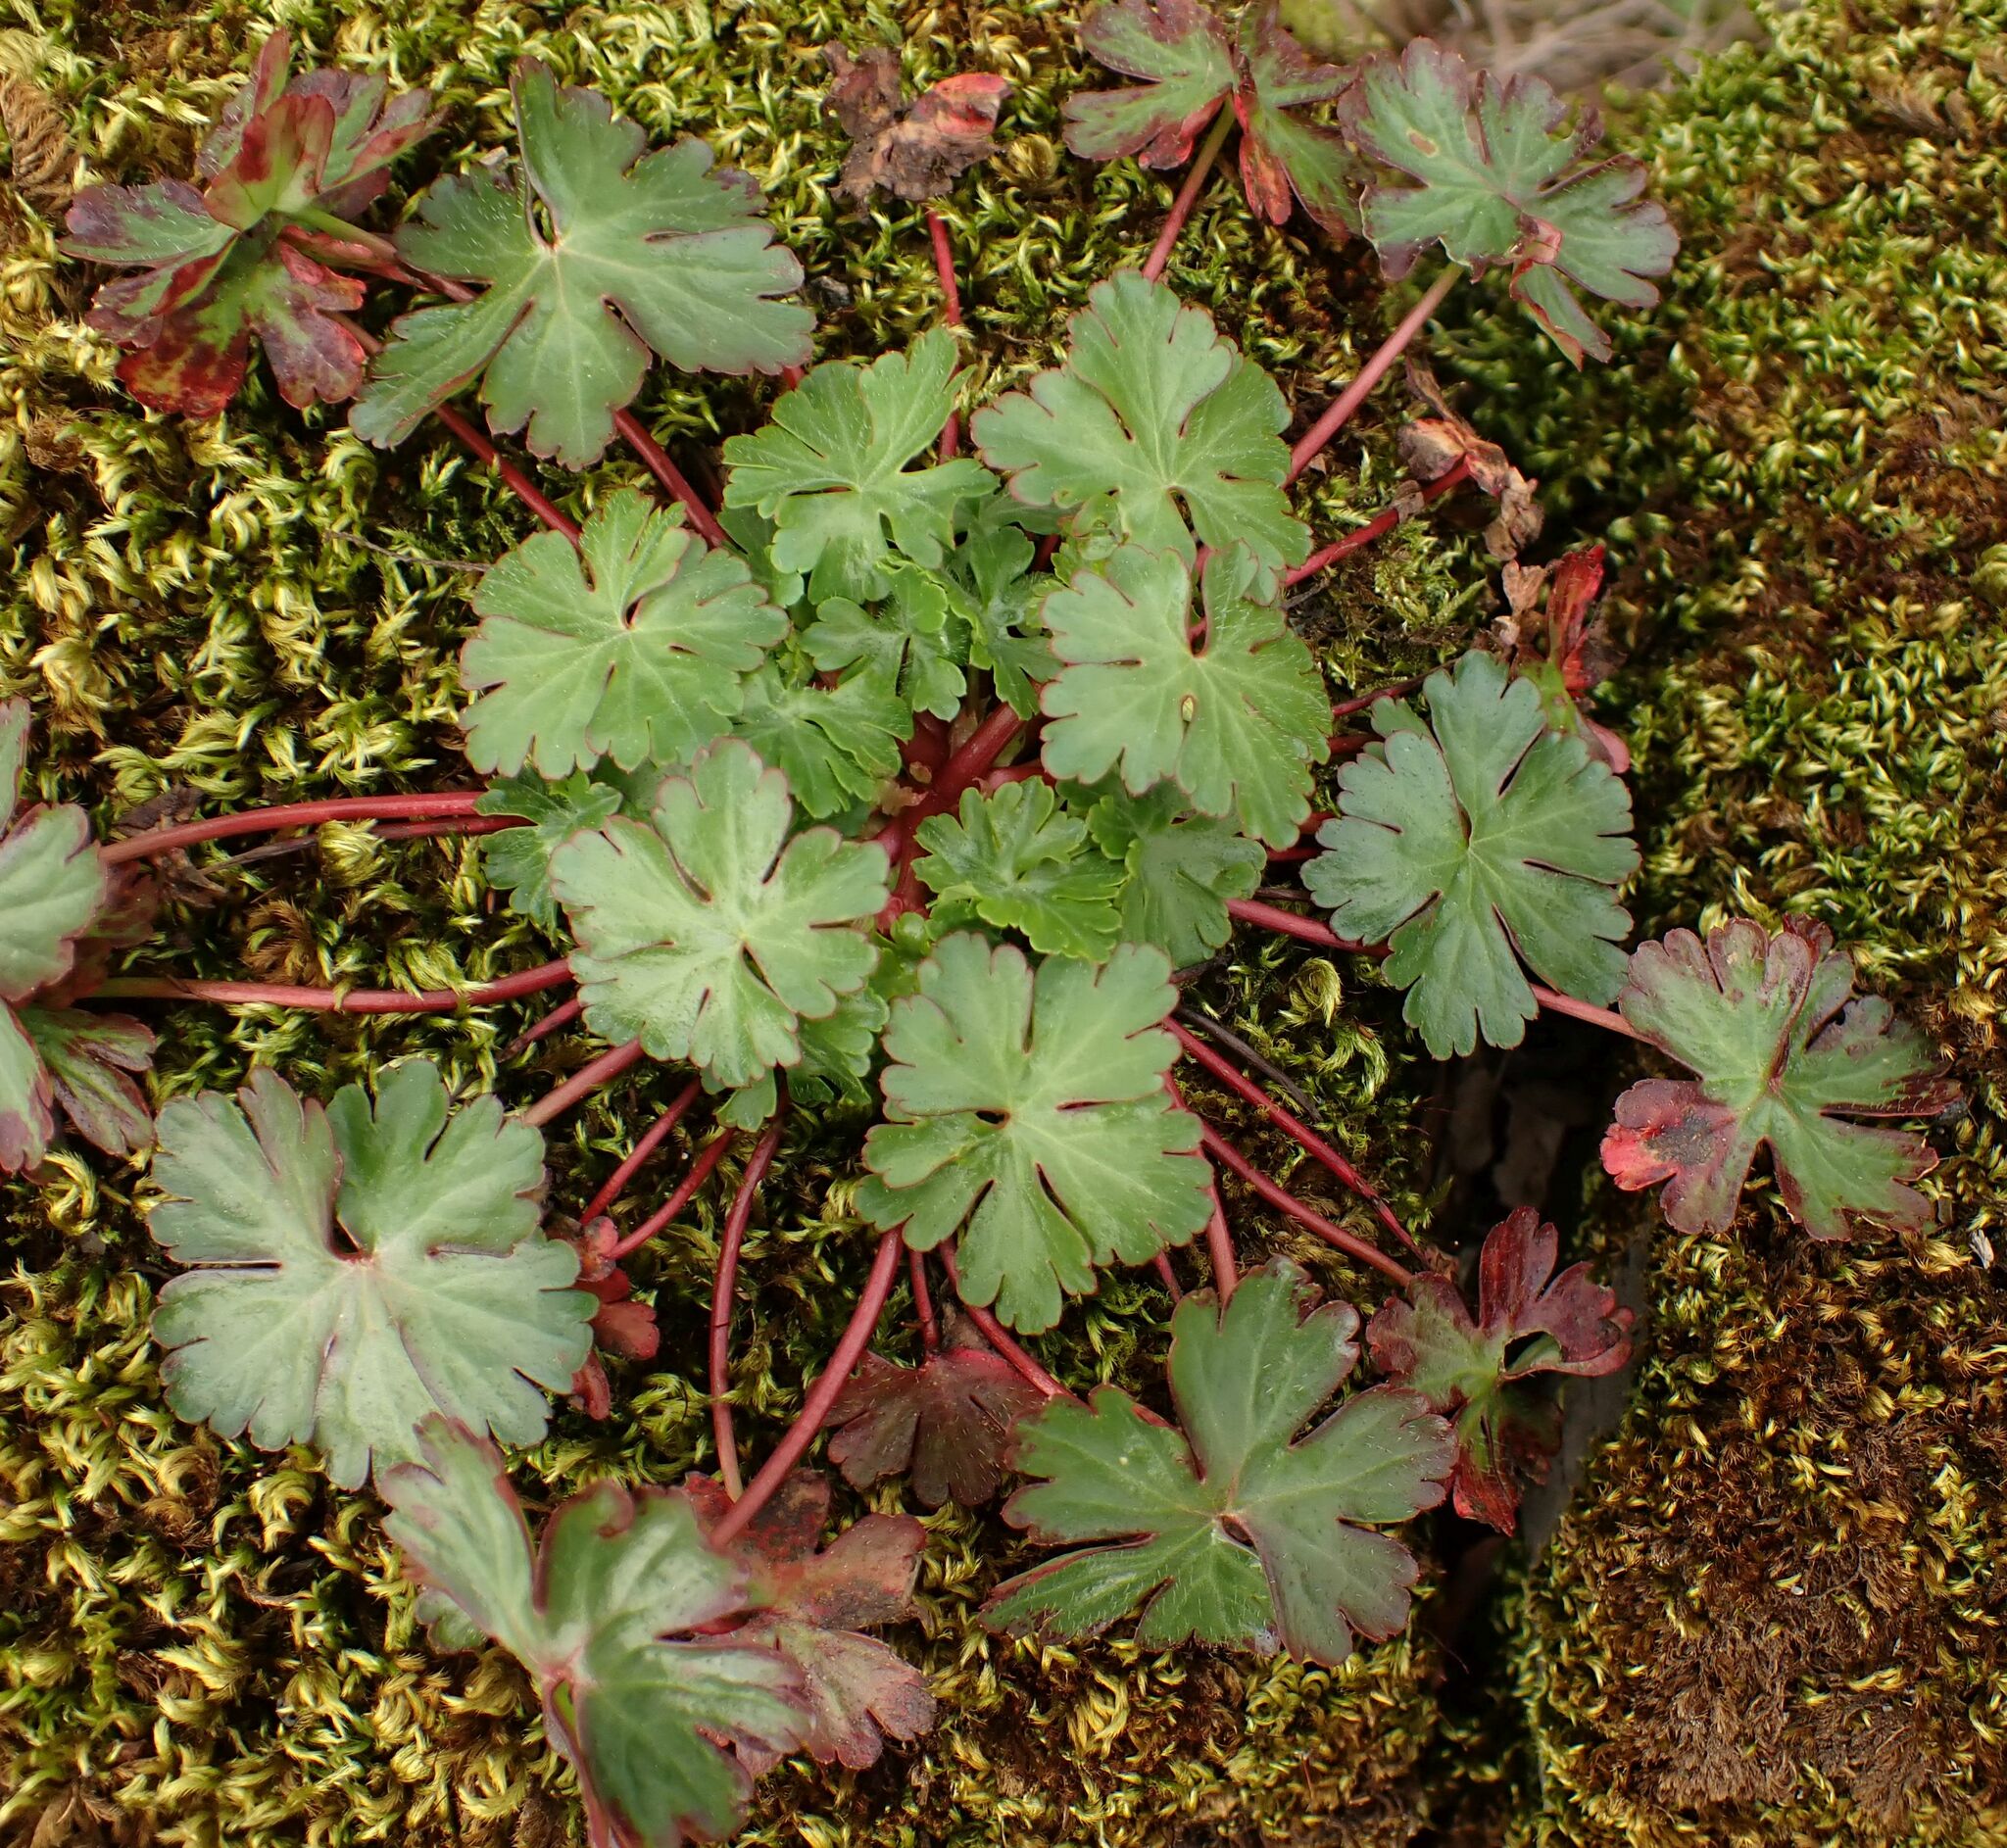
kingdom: Plantae
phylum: Tracheophyta
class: Magnoliopsida
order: Geraniales
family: Geraniaceae
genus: Geranium
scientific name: Geranium lucidum
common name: Shining crane's-bill
